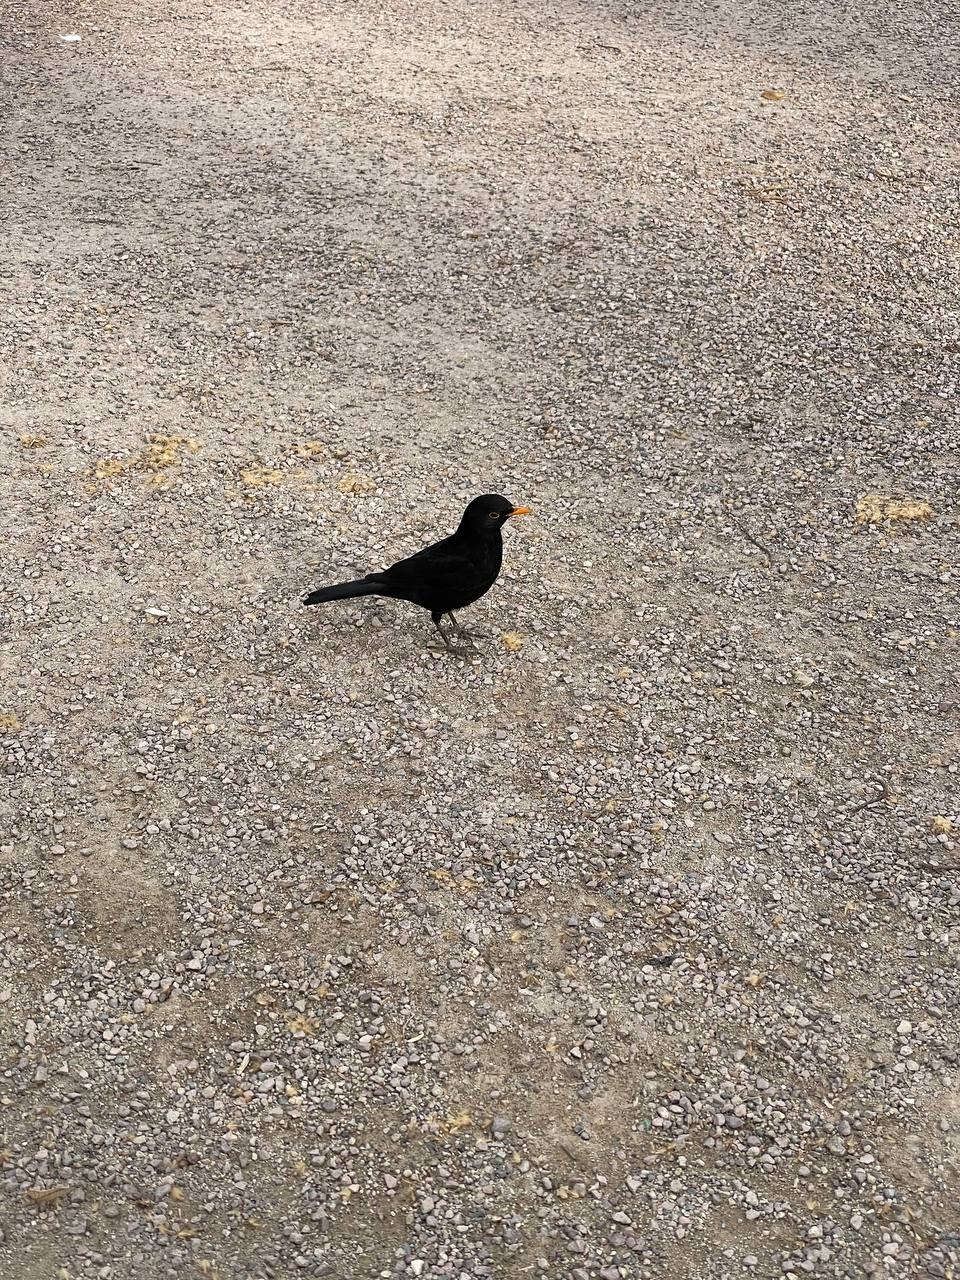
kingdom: Animalia
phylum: Chordata
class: Aves
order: Passeriformes
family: Turdidae
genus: Turdus
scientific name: Turdus merula
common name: Common blackbird
